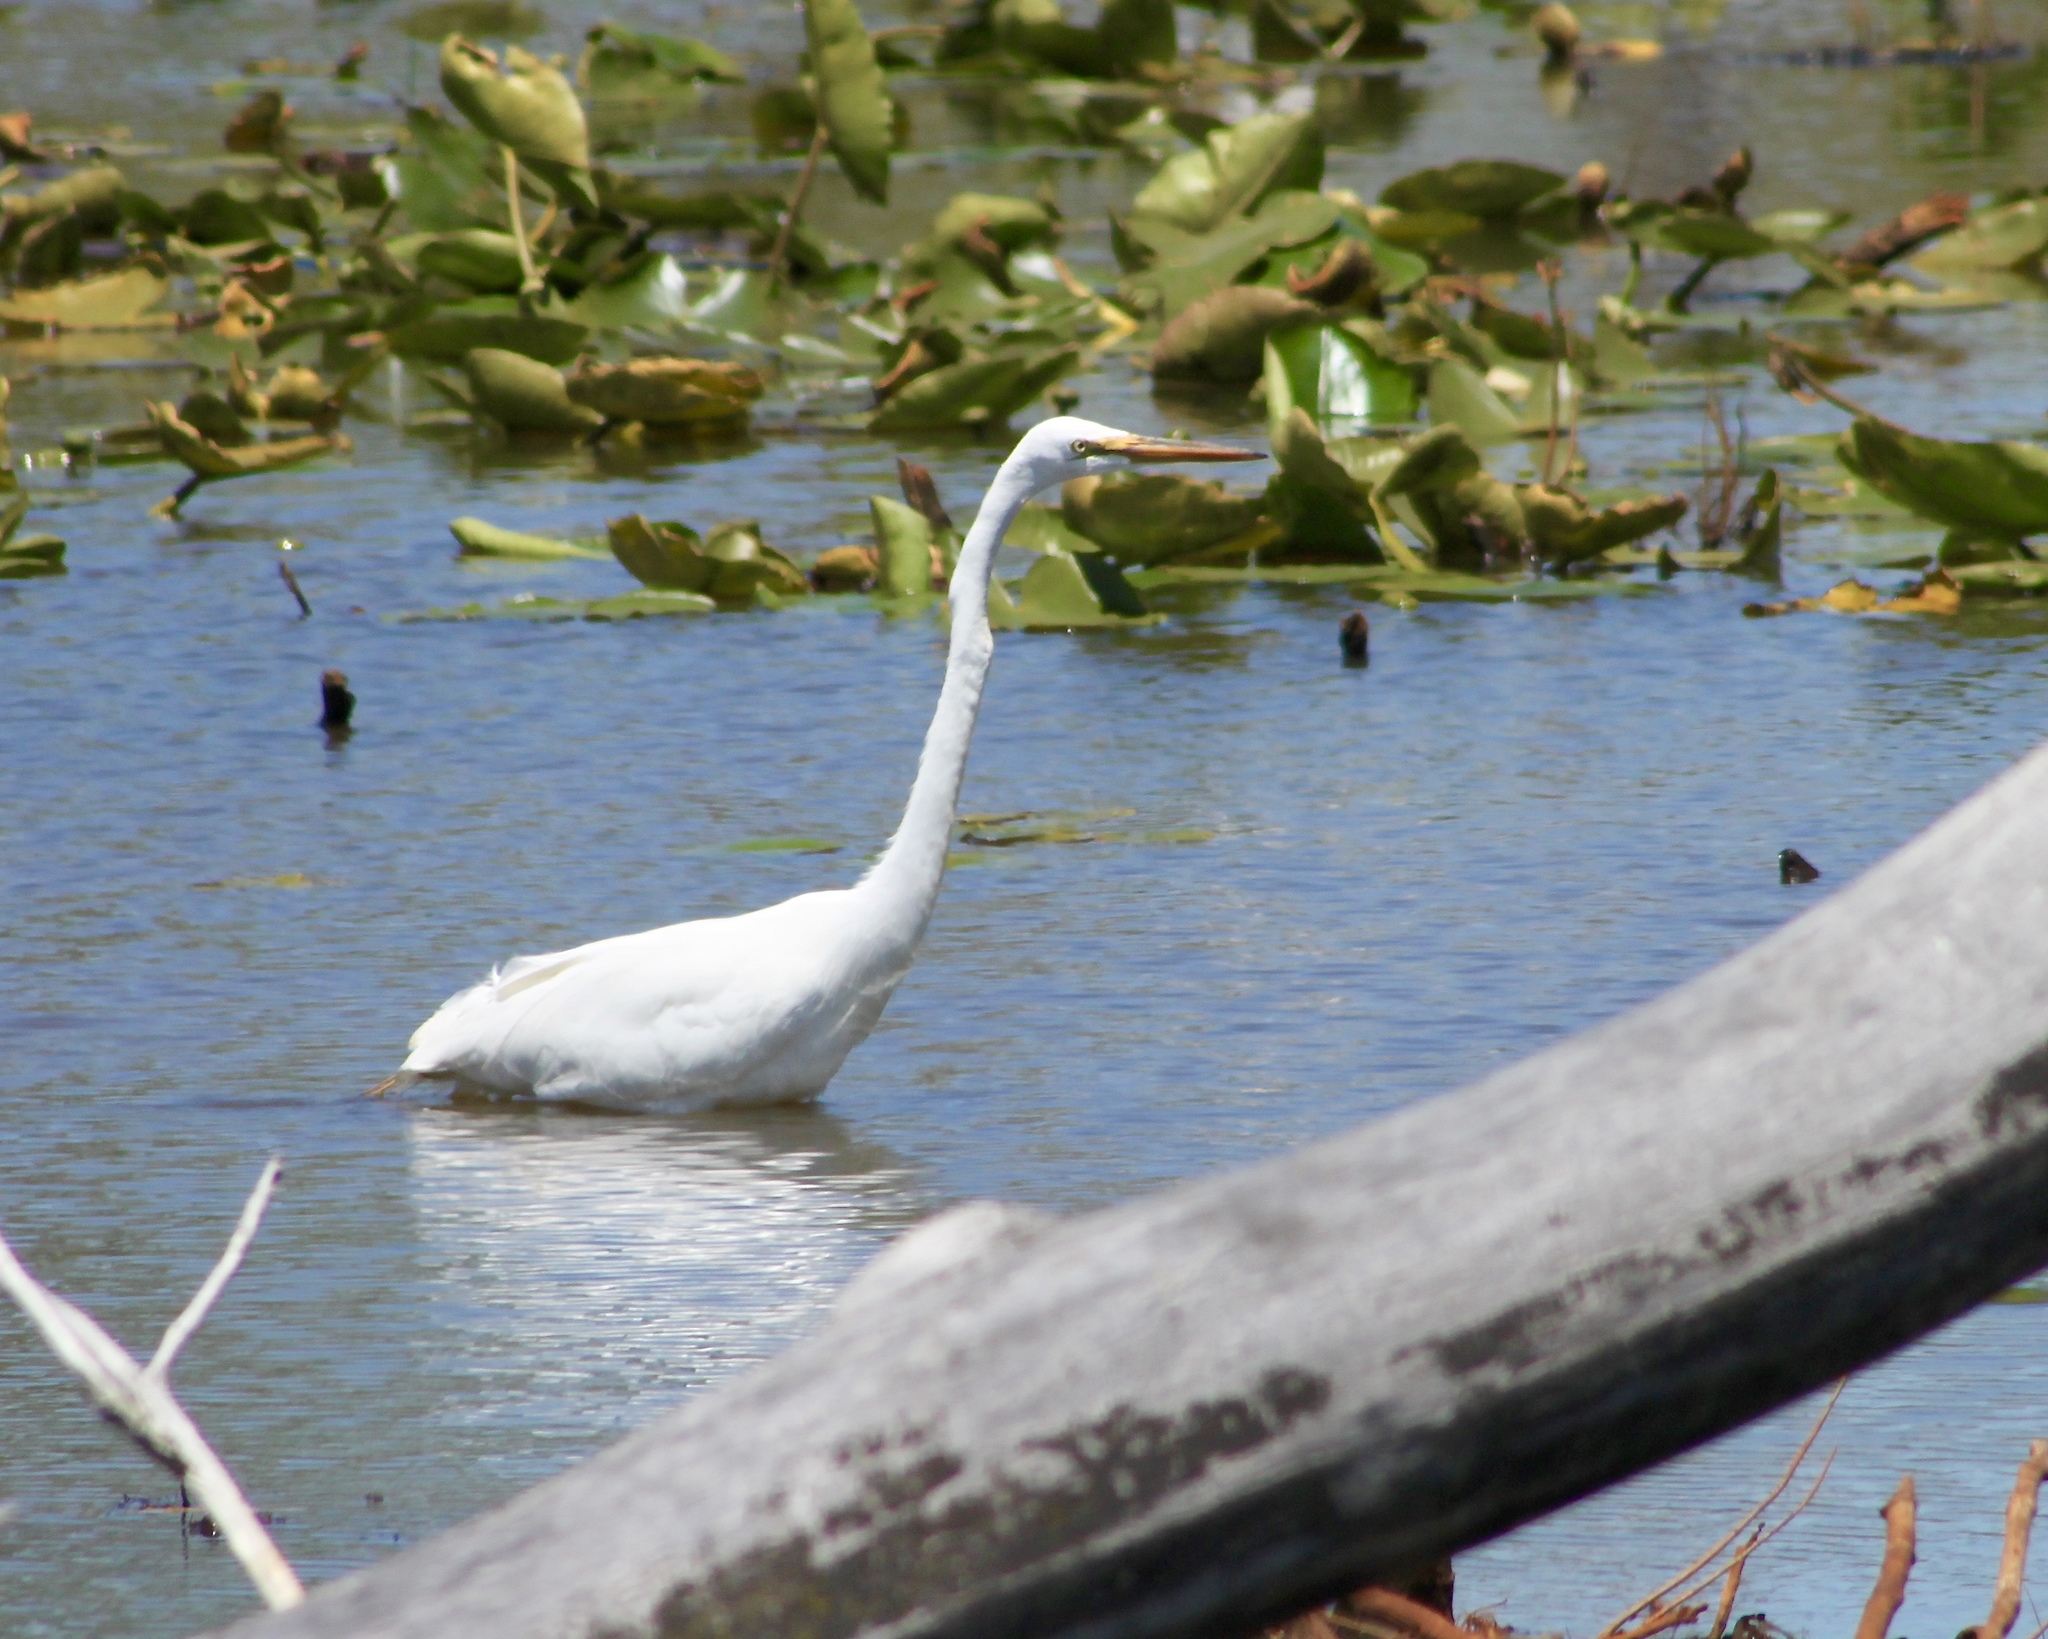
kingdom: Animalia
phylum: Chordata
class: Aves
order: Pelecaniformes
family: Ardeidae
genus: Ardea
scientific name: Ardea alba
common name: Great egret
